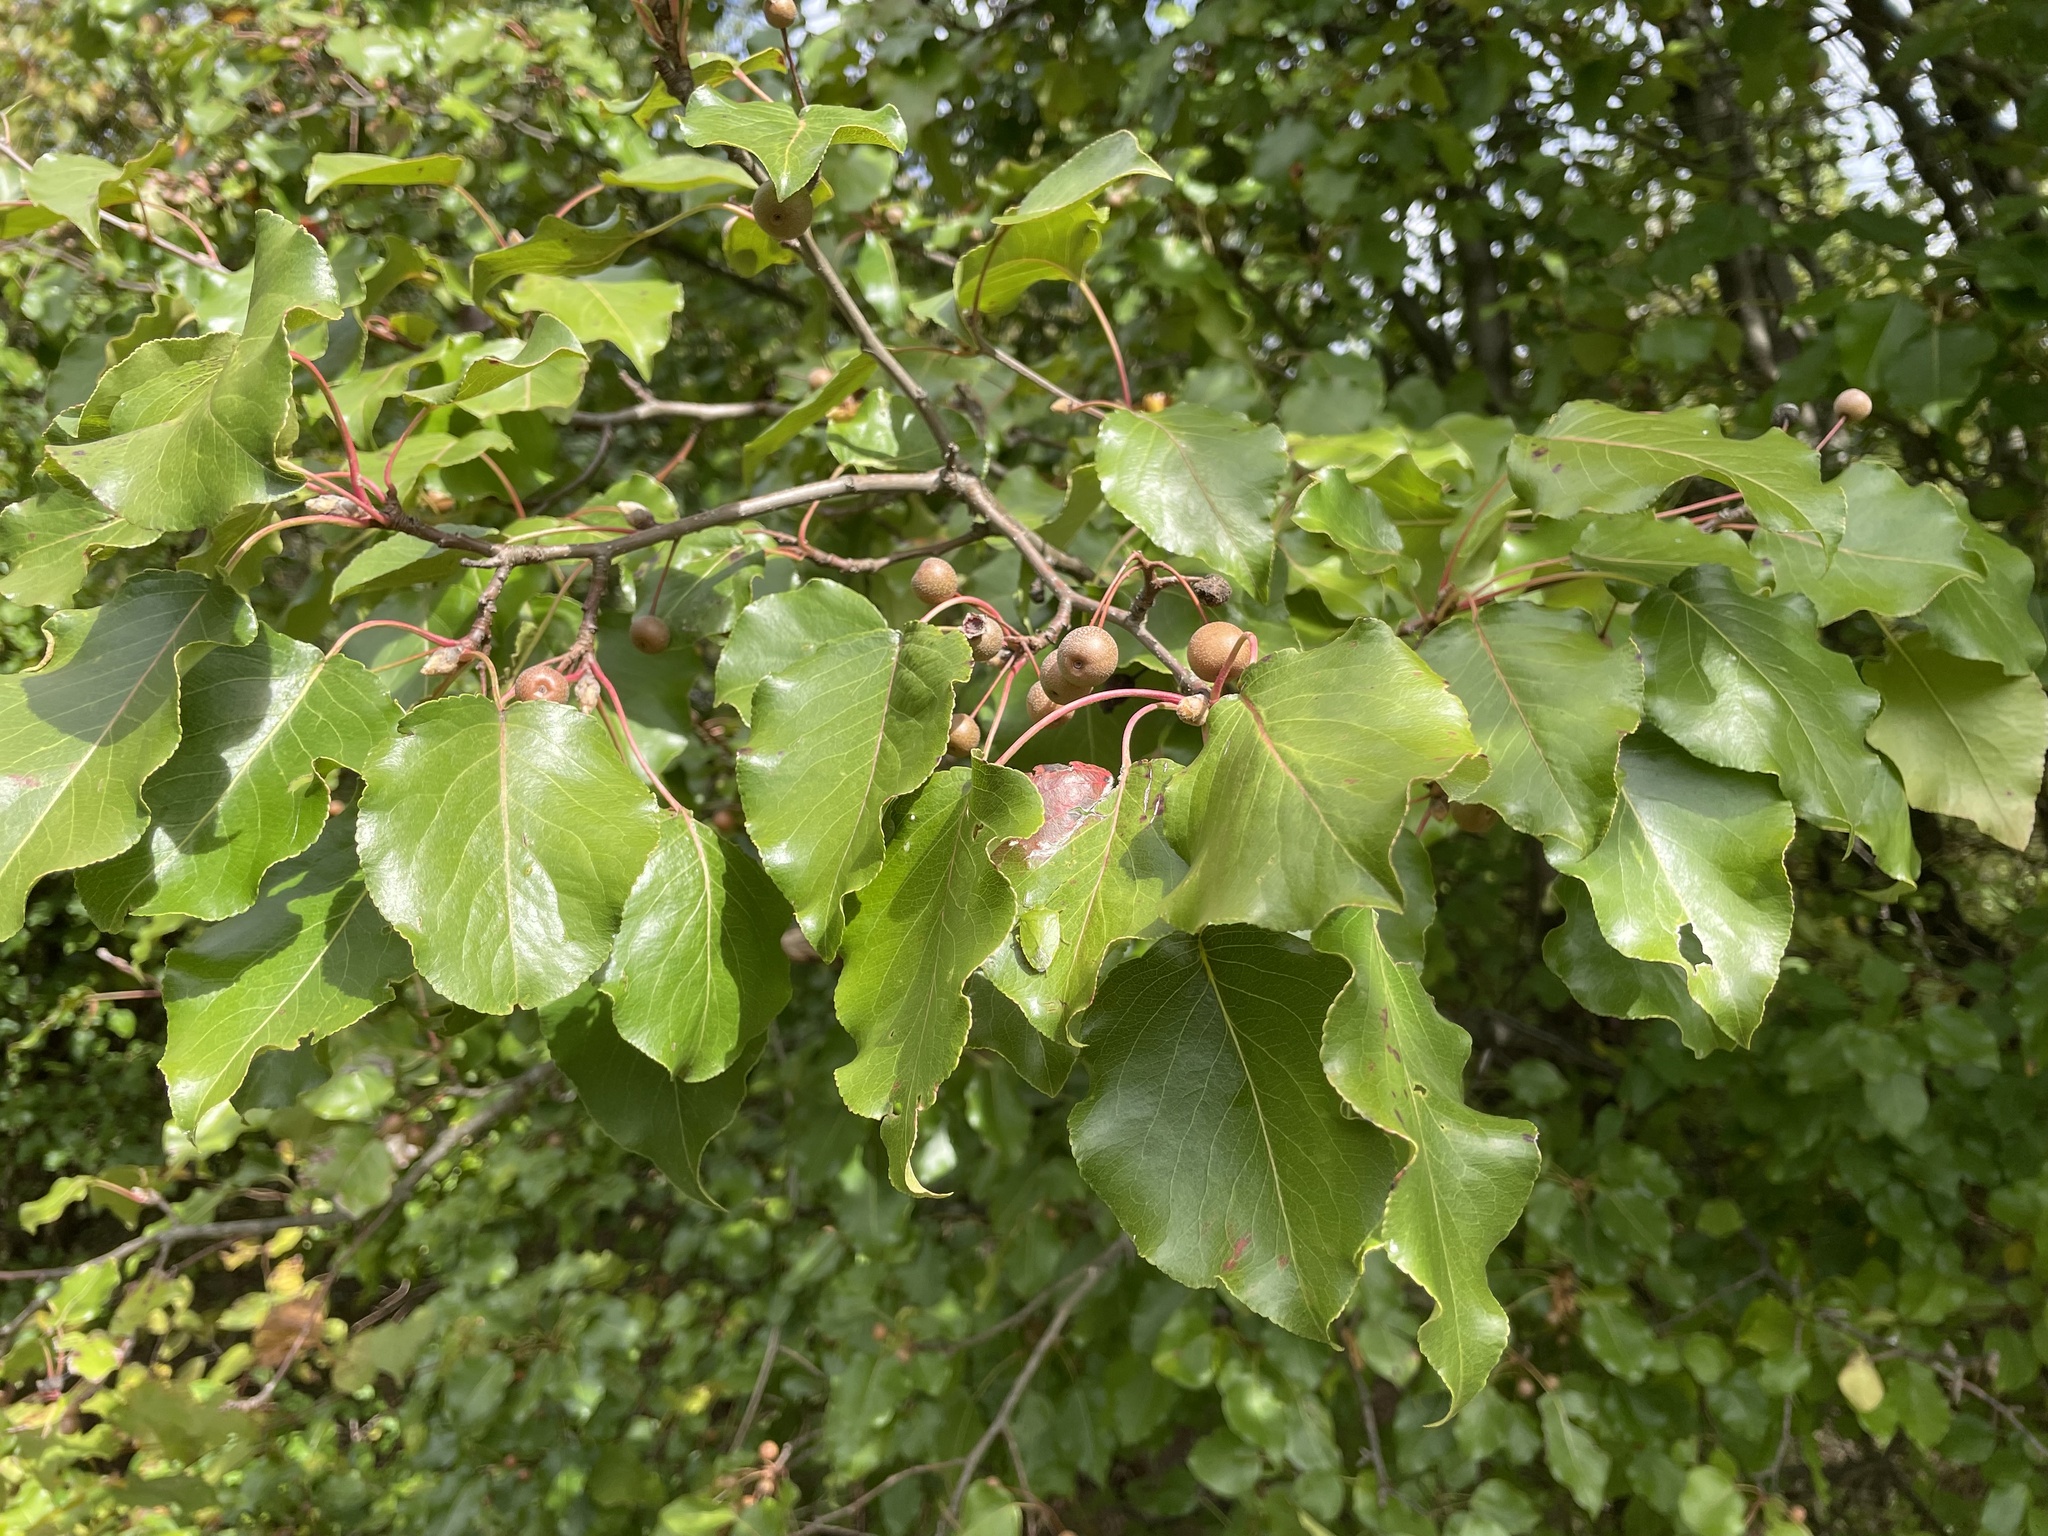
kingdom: Plantae
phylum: Tracheophyta
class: Magnoliopsida
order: Rosales
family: Rosaceae
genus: Pyrus
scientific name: Pyrus calleryana
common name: Callery pear
